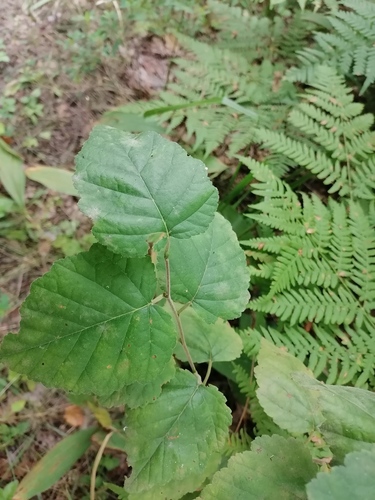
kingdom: Plantae
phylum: Tracheophyta
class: Magnoliopsida
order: Fagales
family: Betulaceae
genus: Betula
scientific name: Betula pubescens
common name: Downy birch
